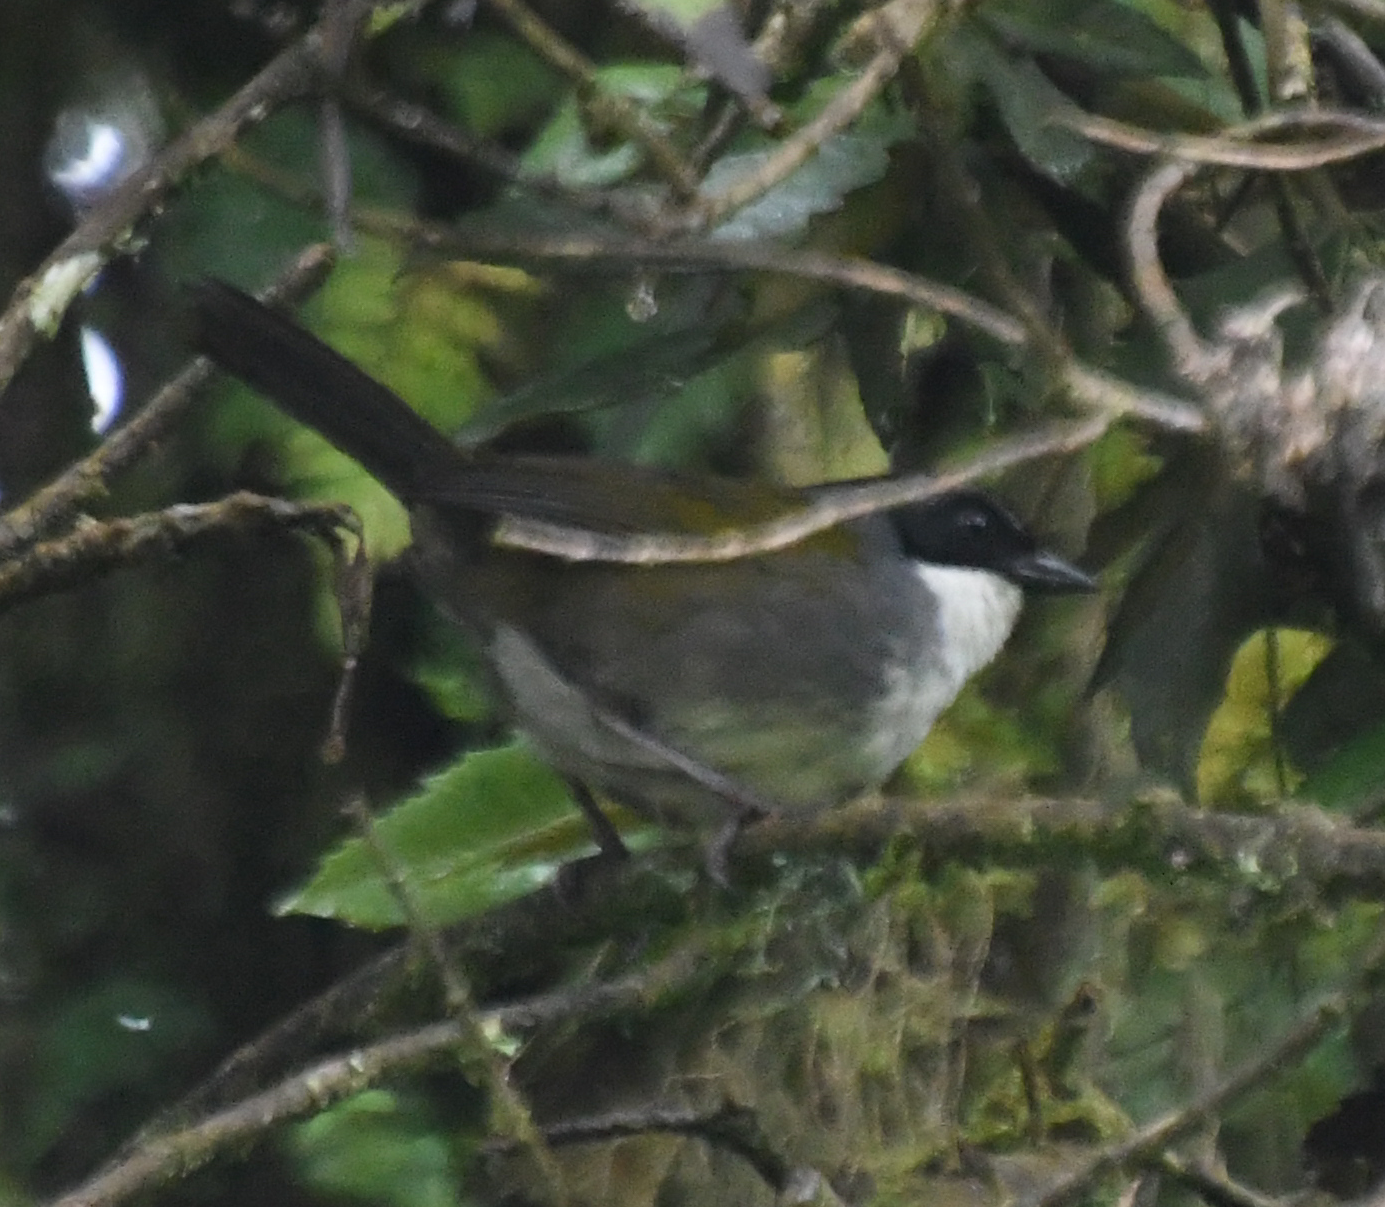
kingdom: Animalia
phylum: Chordata
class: Aves
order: Passeriformes
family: Passerellidae
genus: Arremon
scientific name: Arremon assimilis
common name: Grey-browed brushfinch
